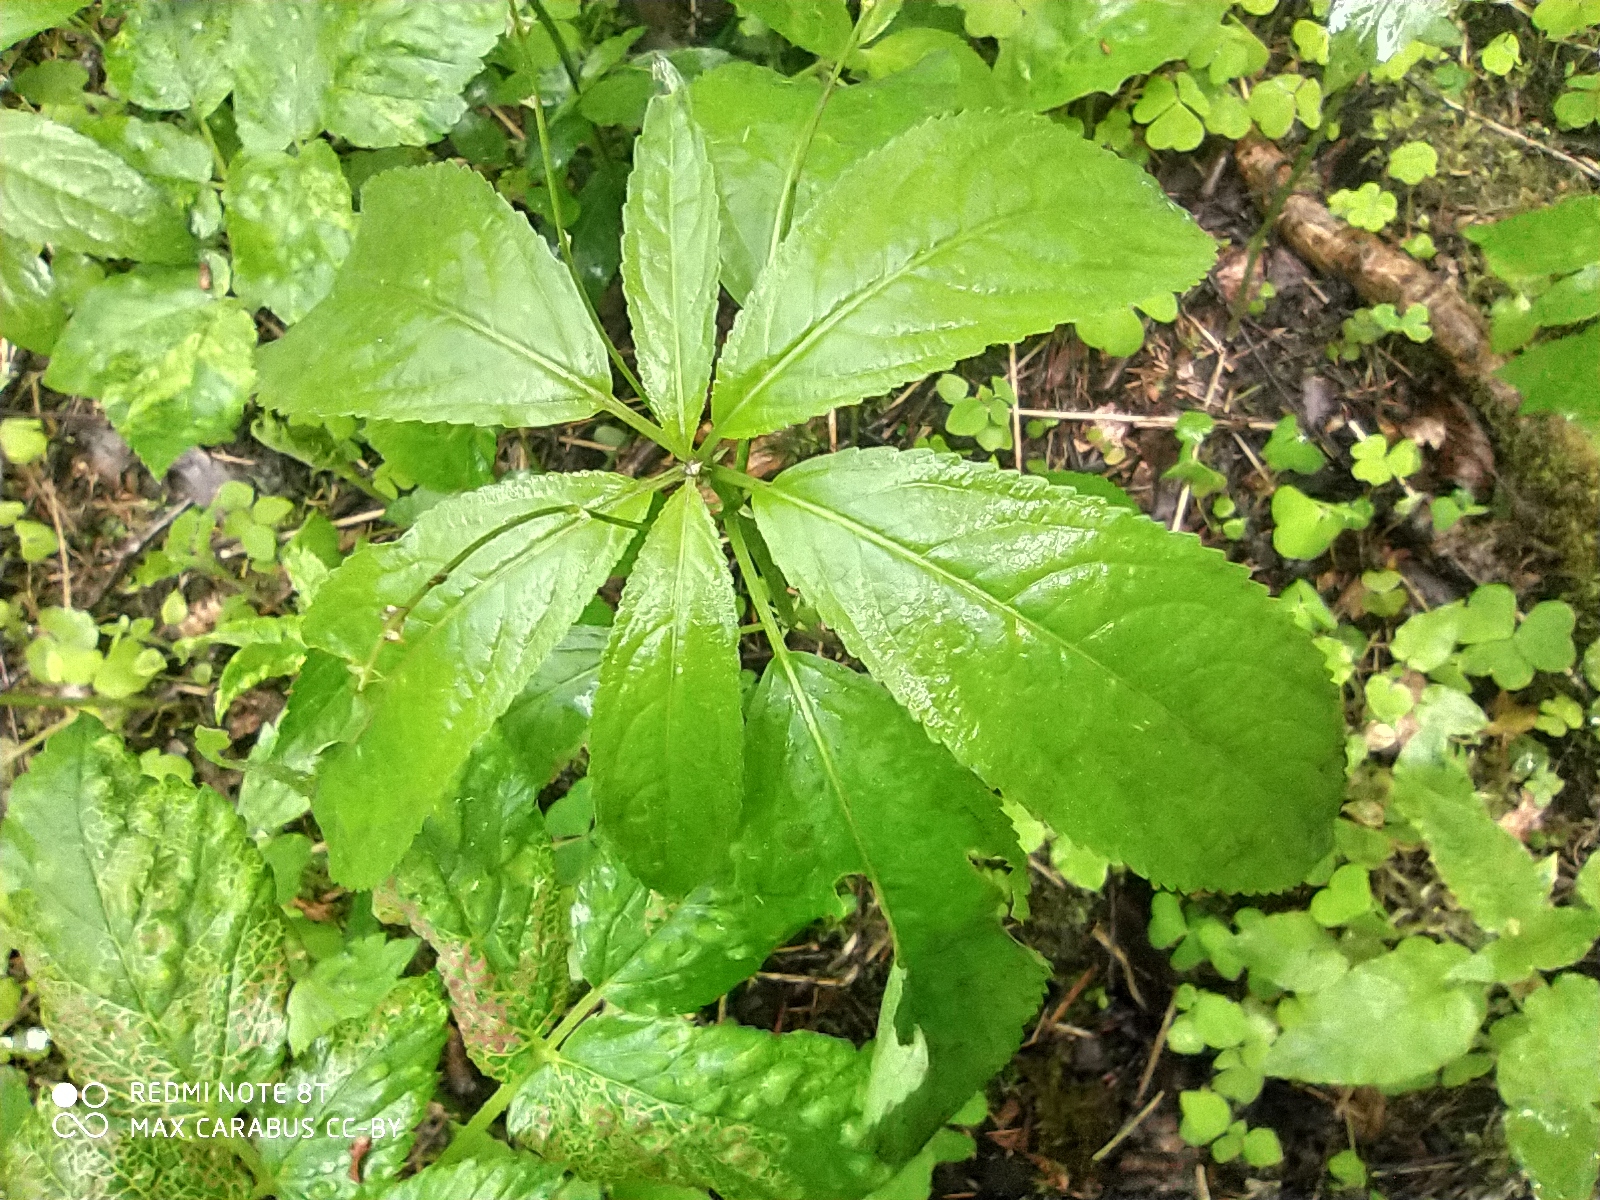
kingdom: Plantae
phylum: Tracheophyta
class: Magnoliopsida
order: Malpighiales
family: Euphorbiaceae
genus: Mercurialis
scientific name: Mercurialis perennis
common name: Dog mercury
